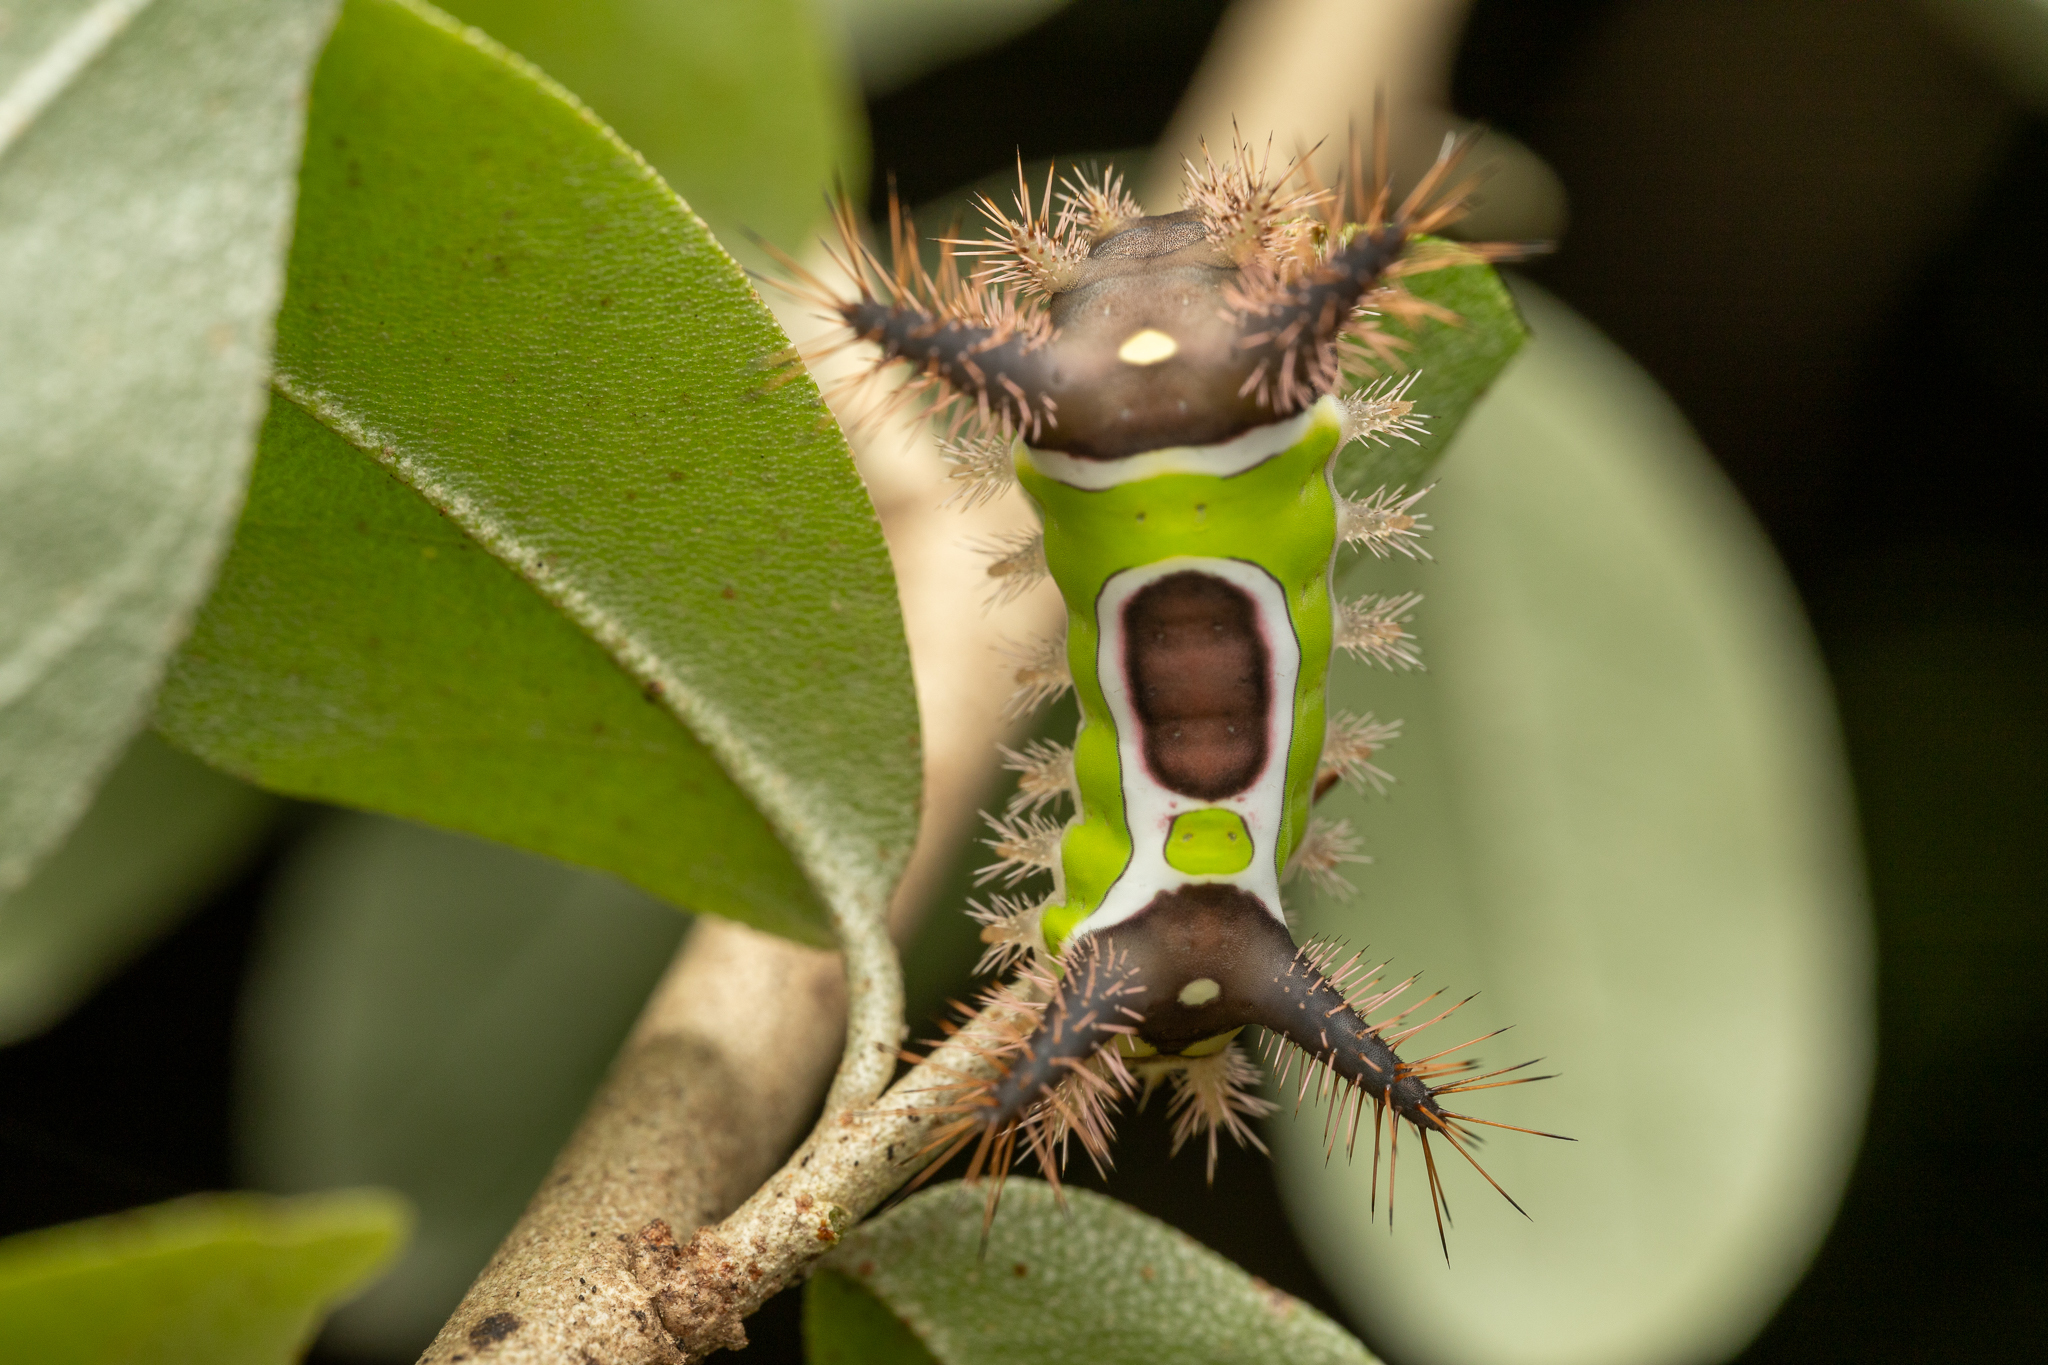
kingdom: Animalia
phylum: Arthropoda
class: Insecta
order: Lepidoptera
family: Limacodidae
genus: Acharia
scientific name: Acharia stimulea
